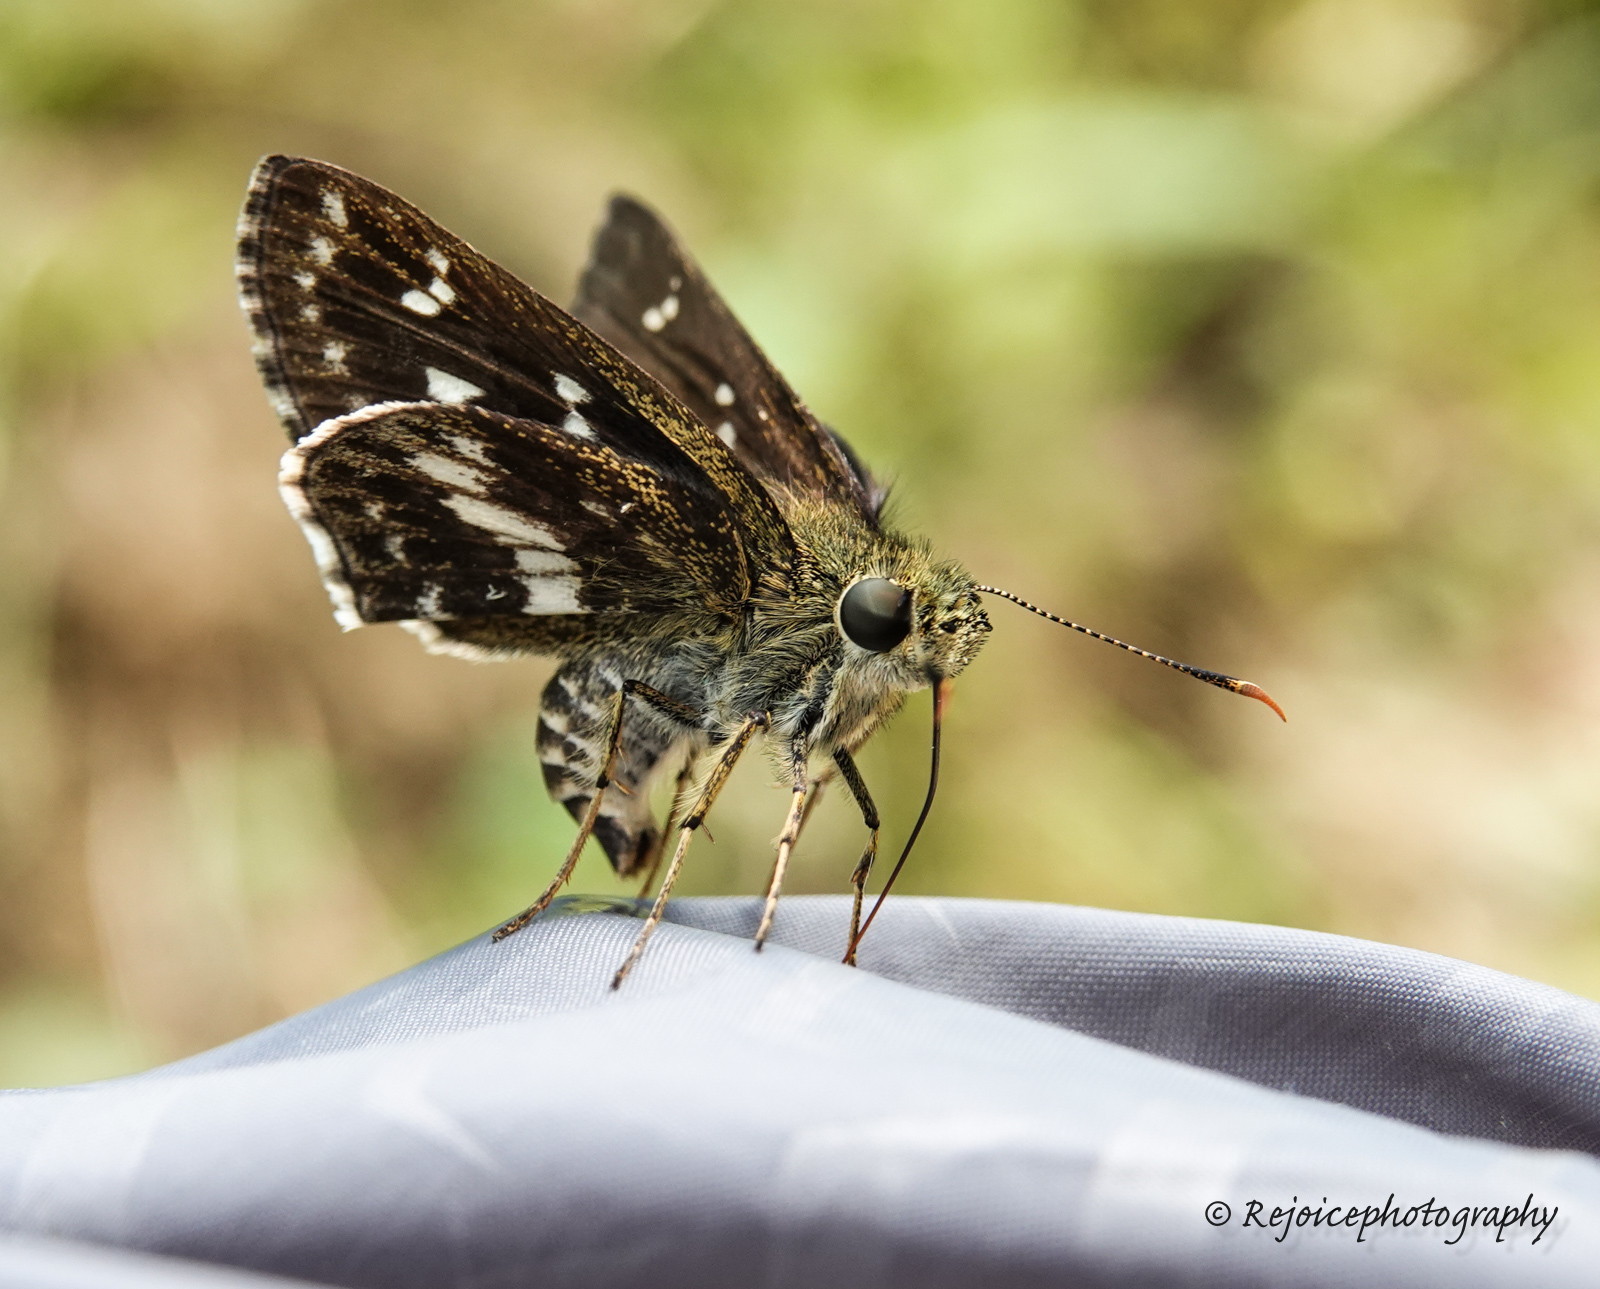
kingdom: Animalia
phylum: Arthropoda
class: Insecta
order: Lepidoptera
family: Hesperiidae
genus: Halpe
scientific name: Halpe porus
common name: Moore's ace
